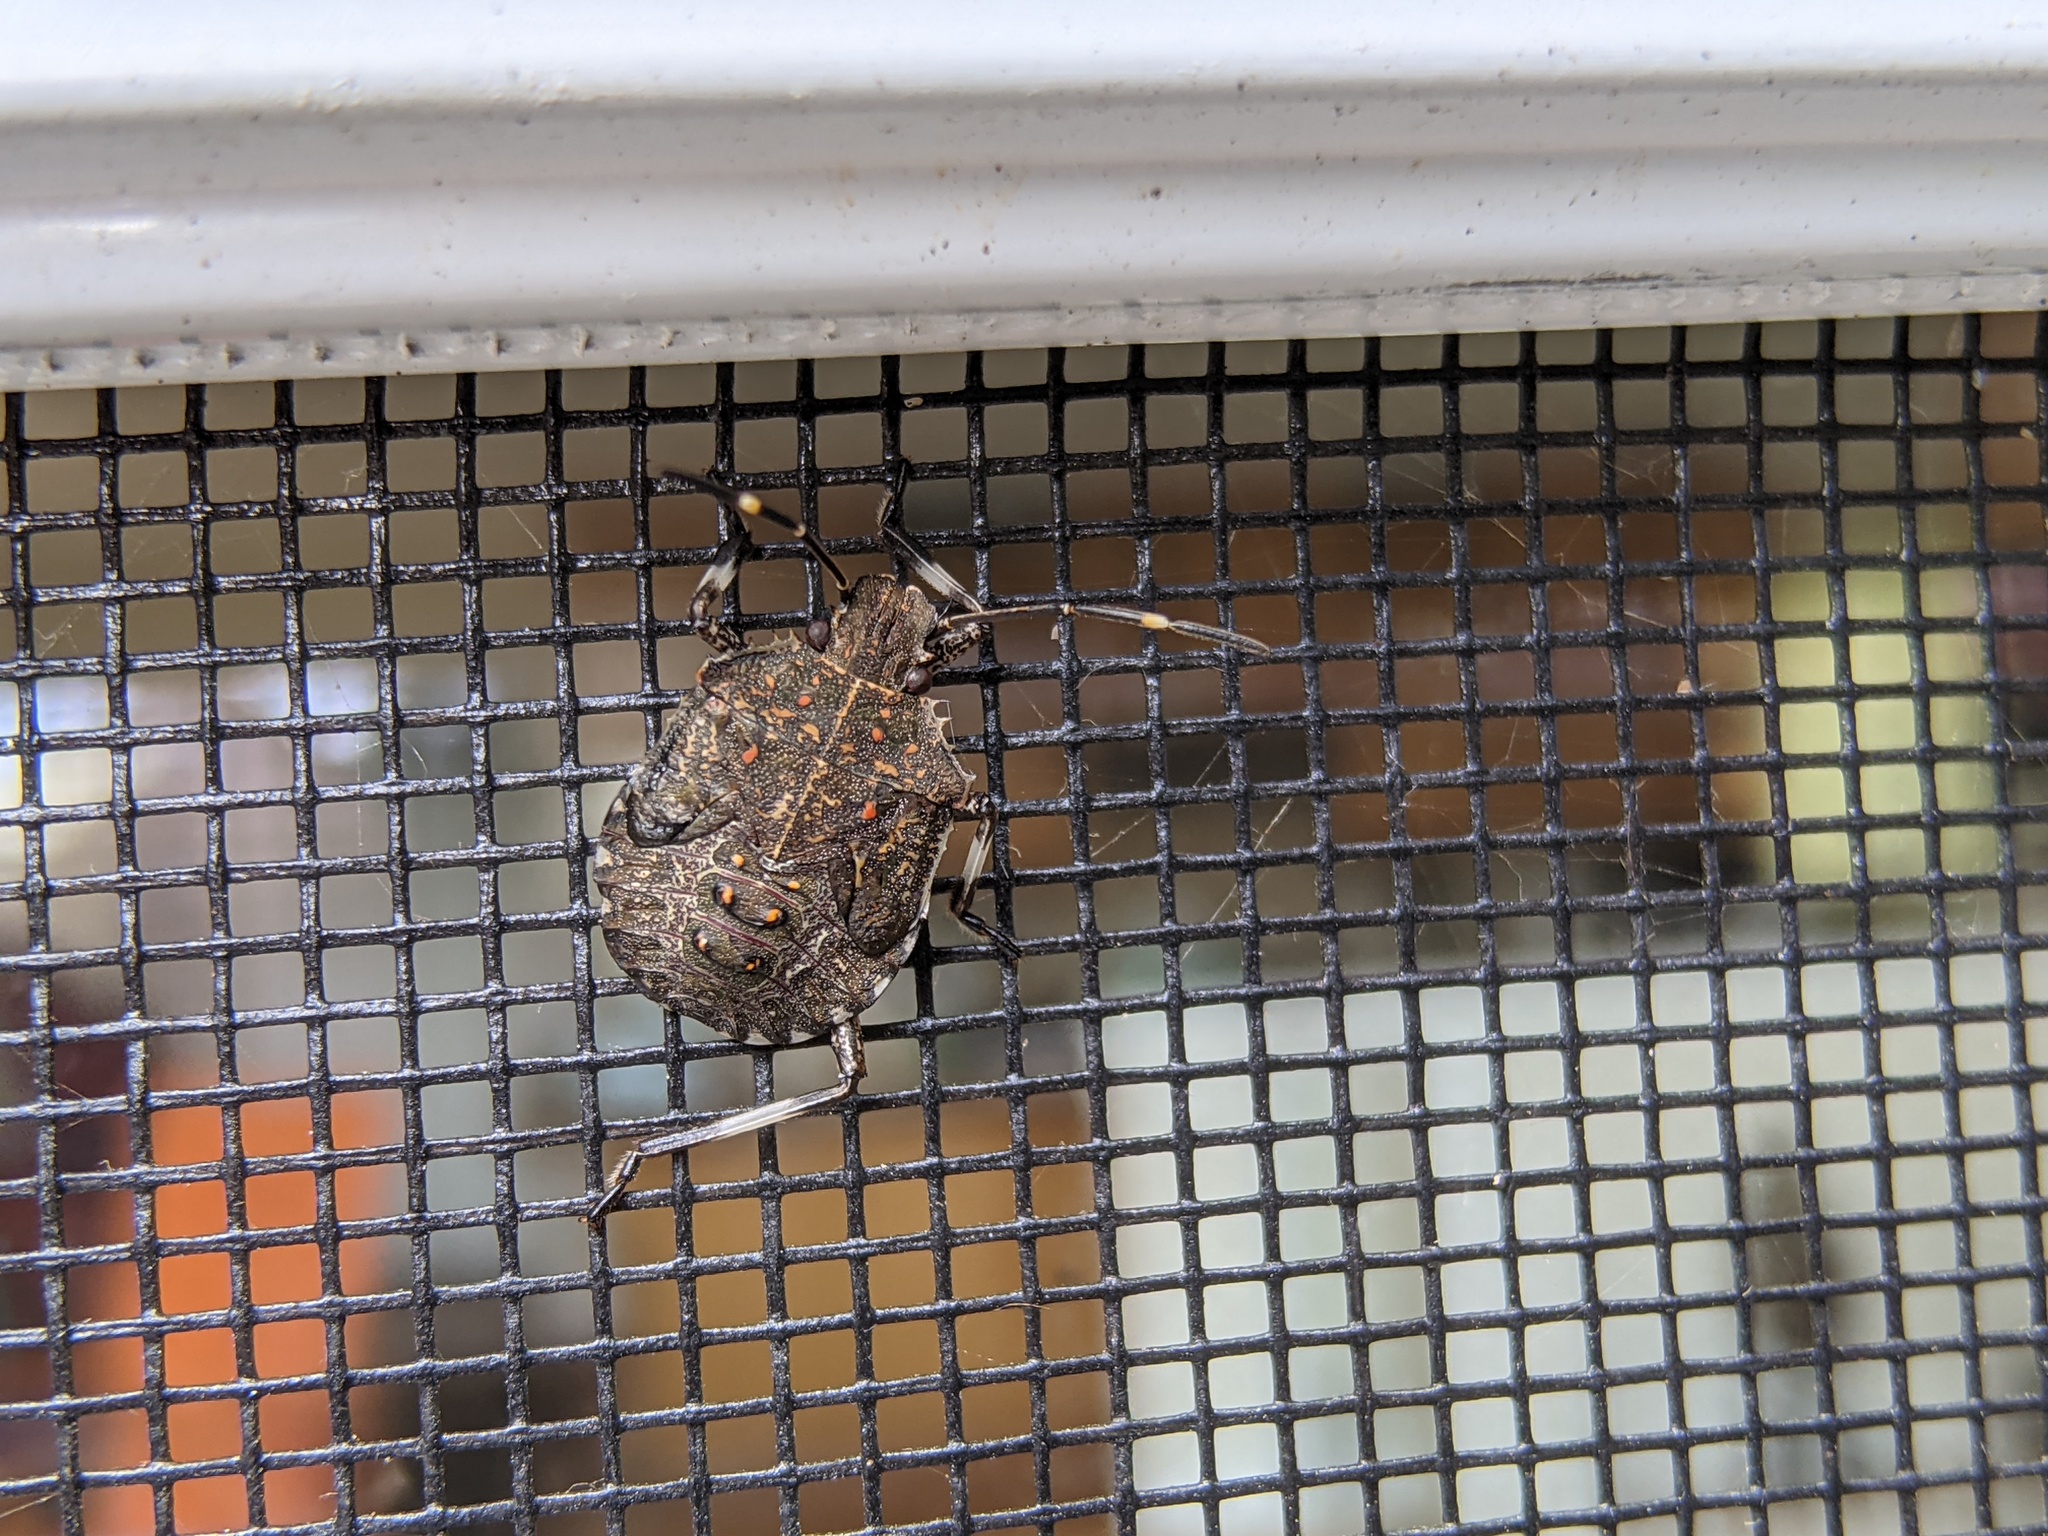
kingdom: Animalia
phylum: Arthropoda
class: Insecta
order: Hemiptera
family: Pentatomidae
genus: Halyomorpha
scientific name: Halyomorpha halys
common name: Brown marmorated stink bug
